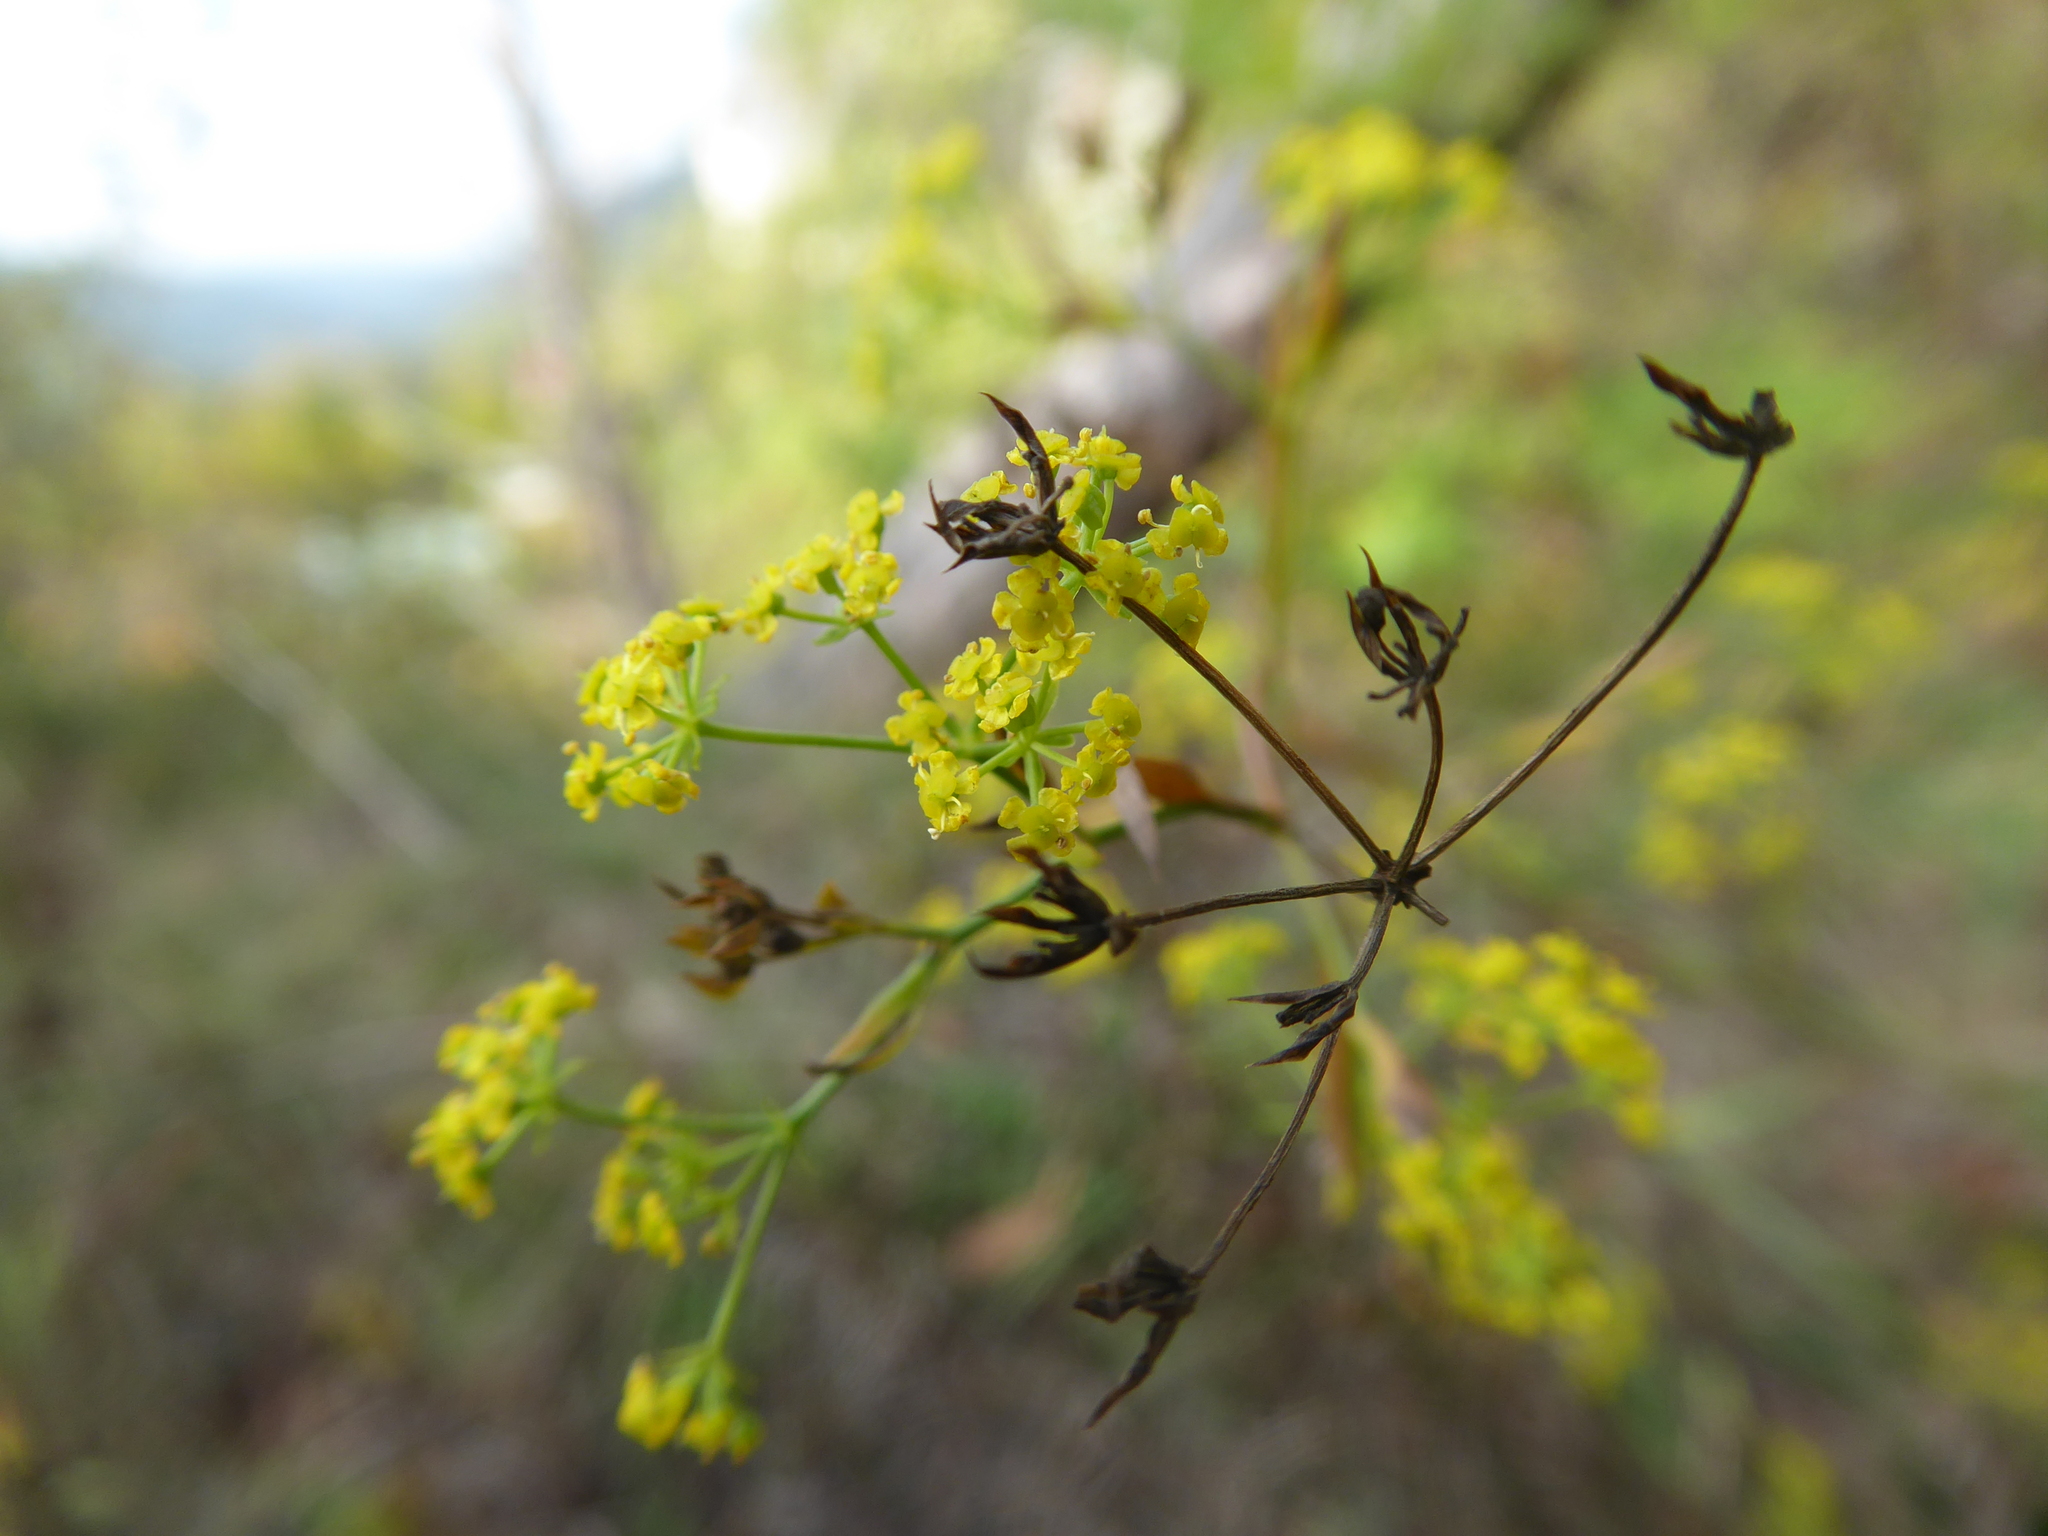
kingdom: Plantae
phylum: Tracheophyta
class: Magnoliopsida
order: Apiales
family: Apiaceae
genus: Bupleurum
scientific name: Bupleurum falcatum
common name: Sickle-leaved hare's-ear
